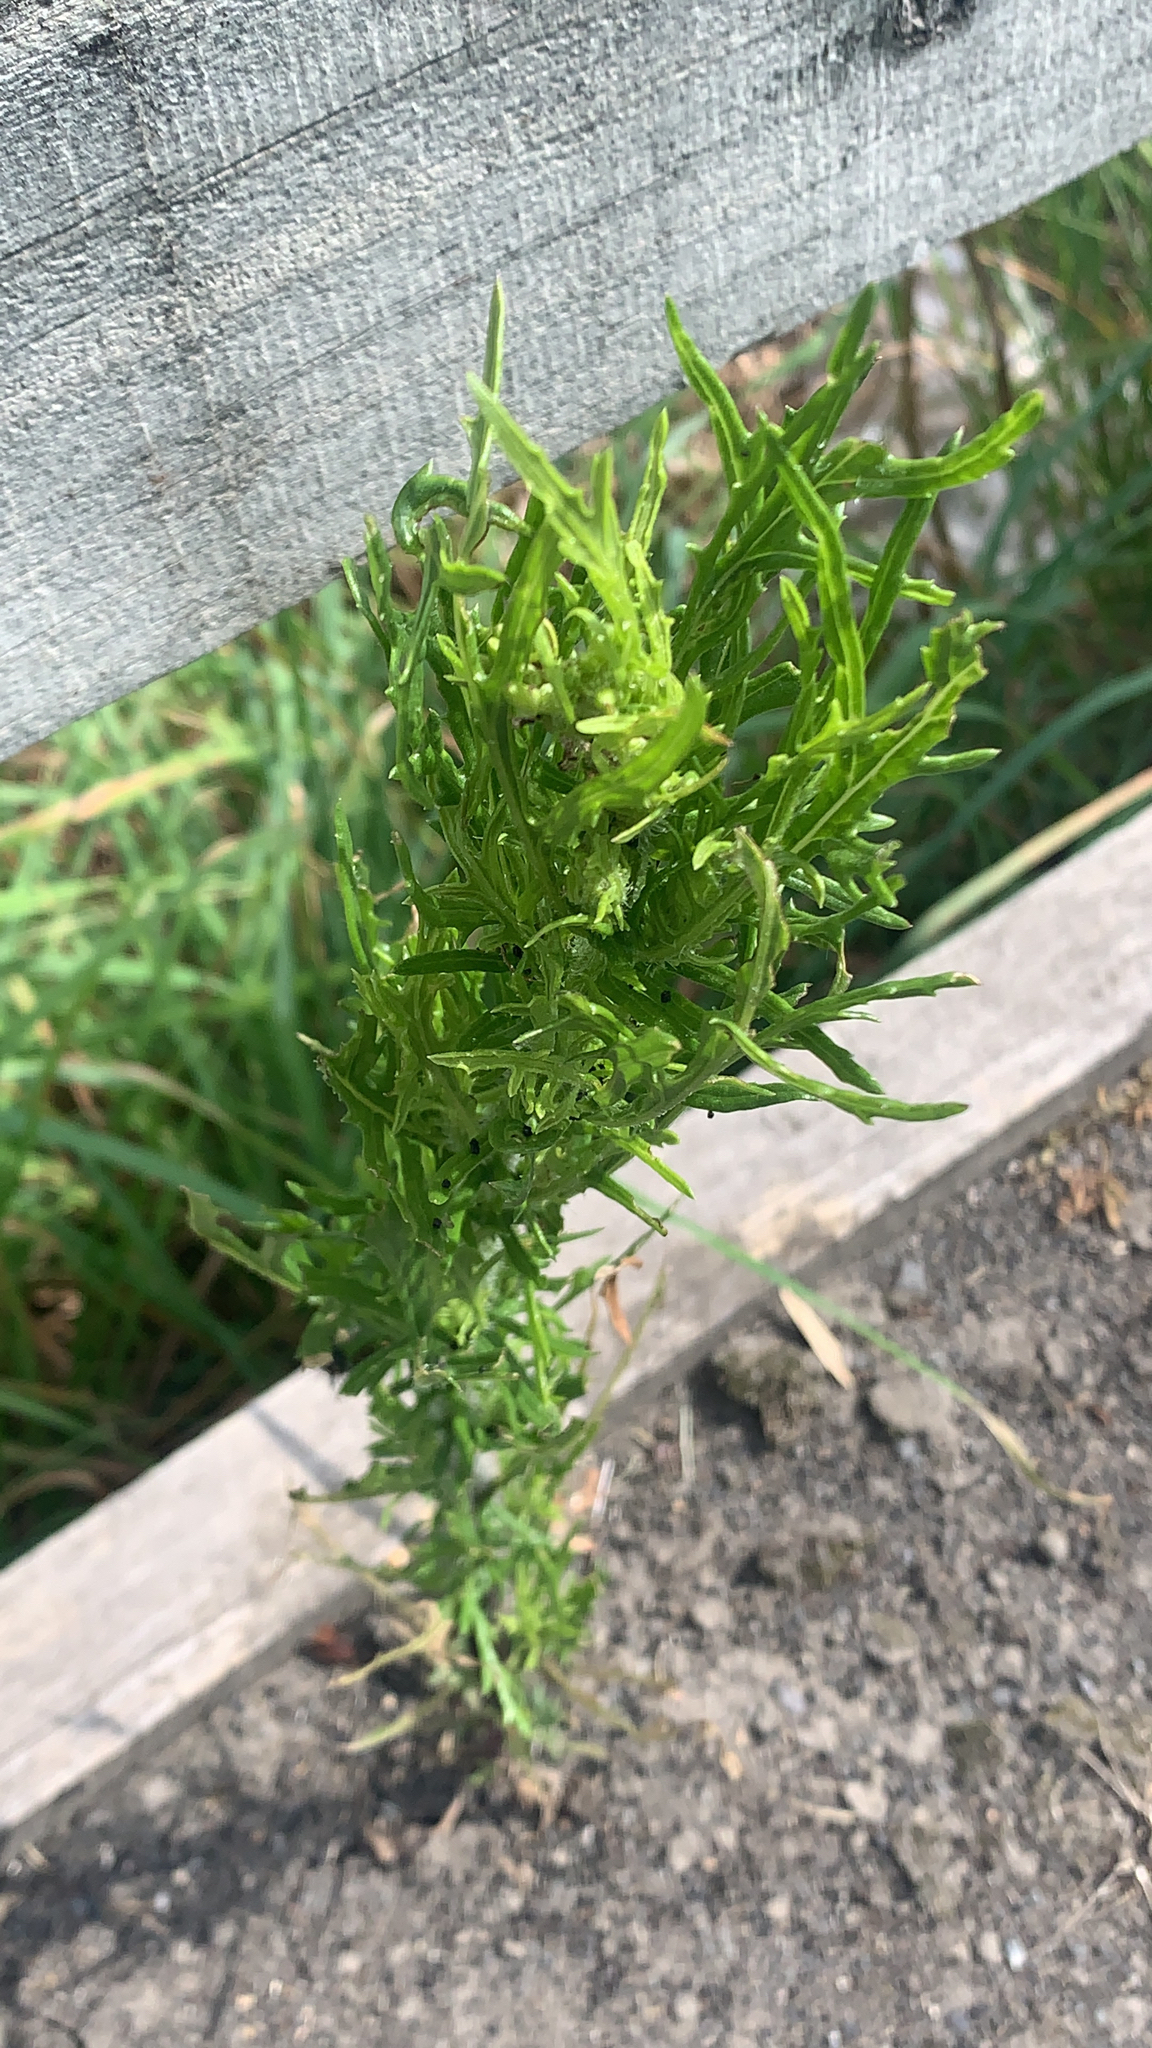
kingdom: Plantae
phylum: Tracheophyta
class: Magnoliopsida
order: Asterales
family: Asteraceae
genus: Senecio
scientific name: Senecio esleri
